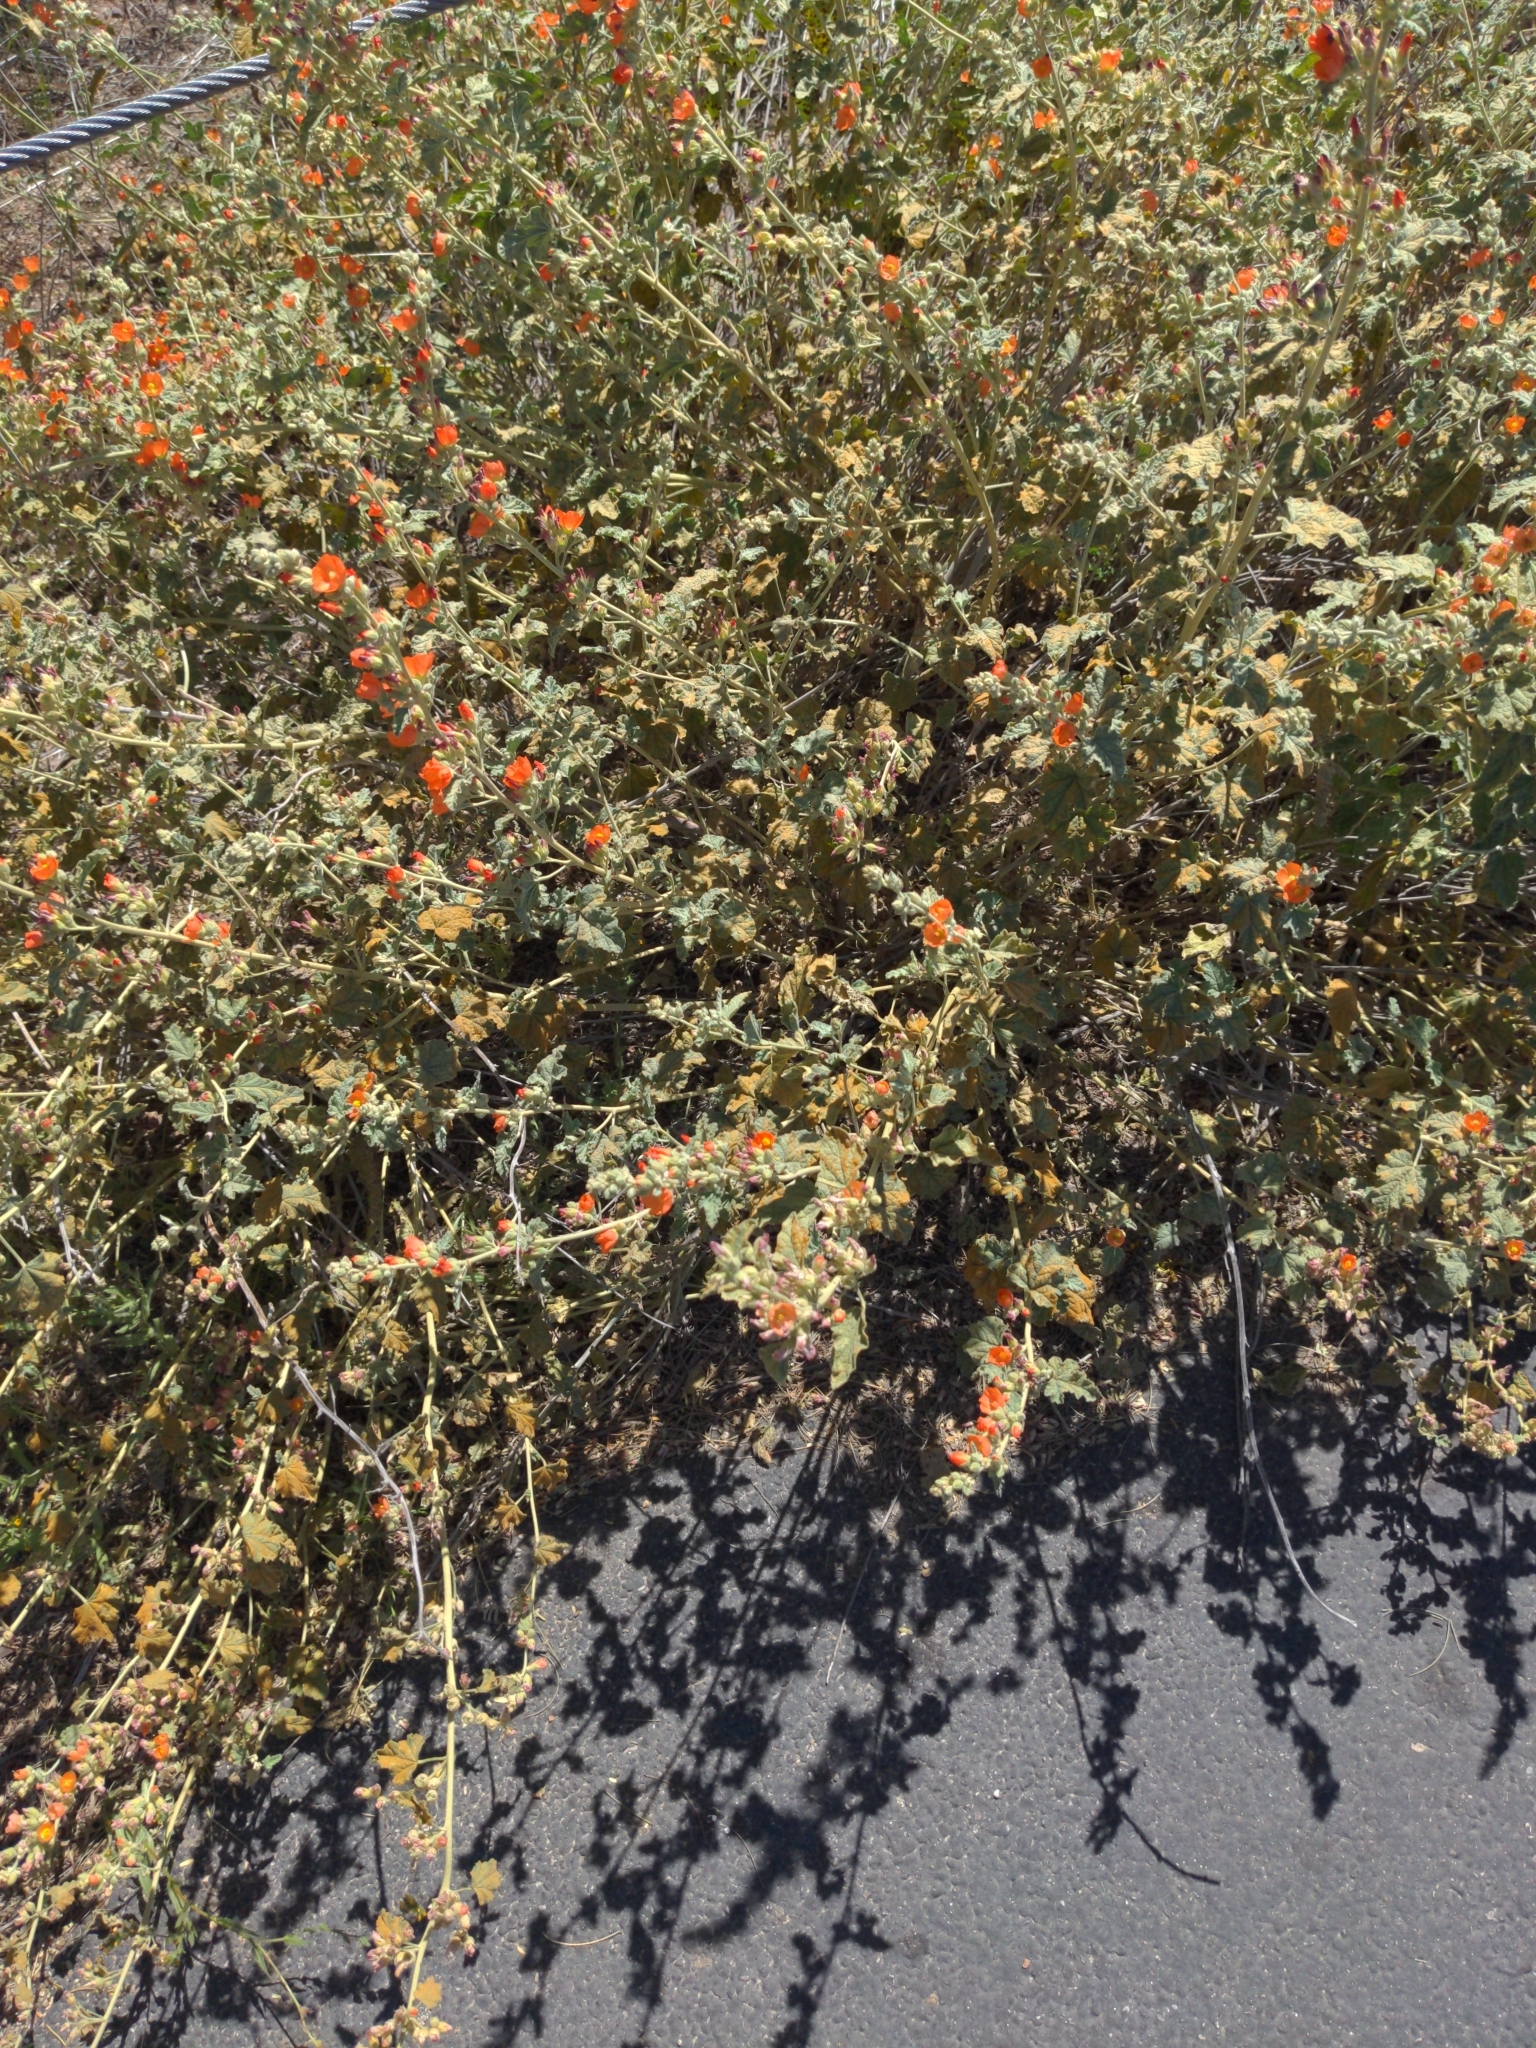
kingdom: Plantae
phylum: Tracheophyta
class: Magnoliopsida
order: Malvales
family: Malvaceae
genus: Sphaeralcea
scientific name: Sphaeralcea ambigua
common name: Apricot globe-mallow
